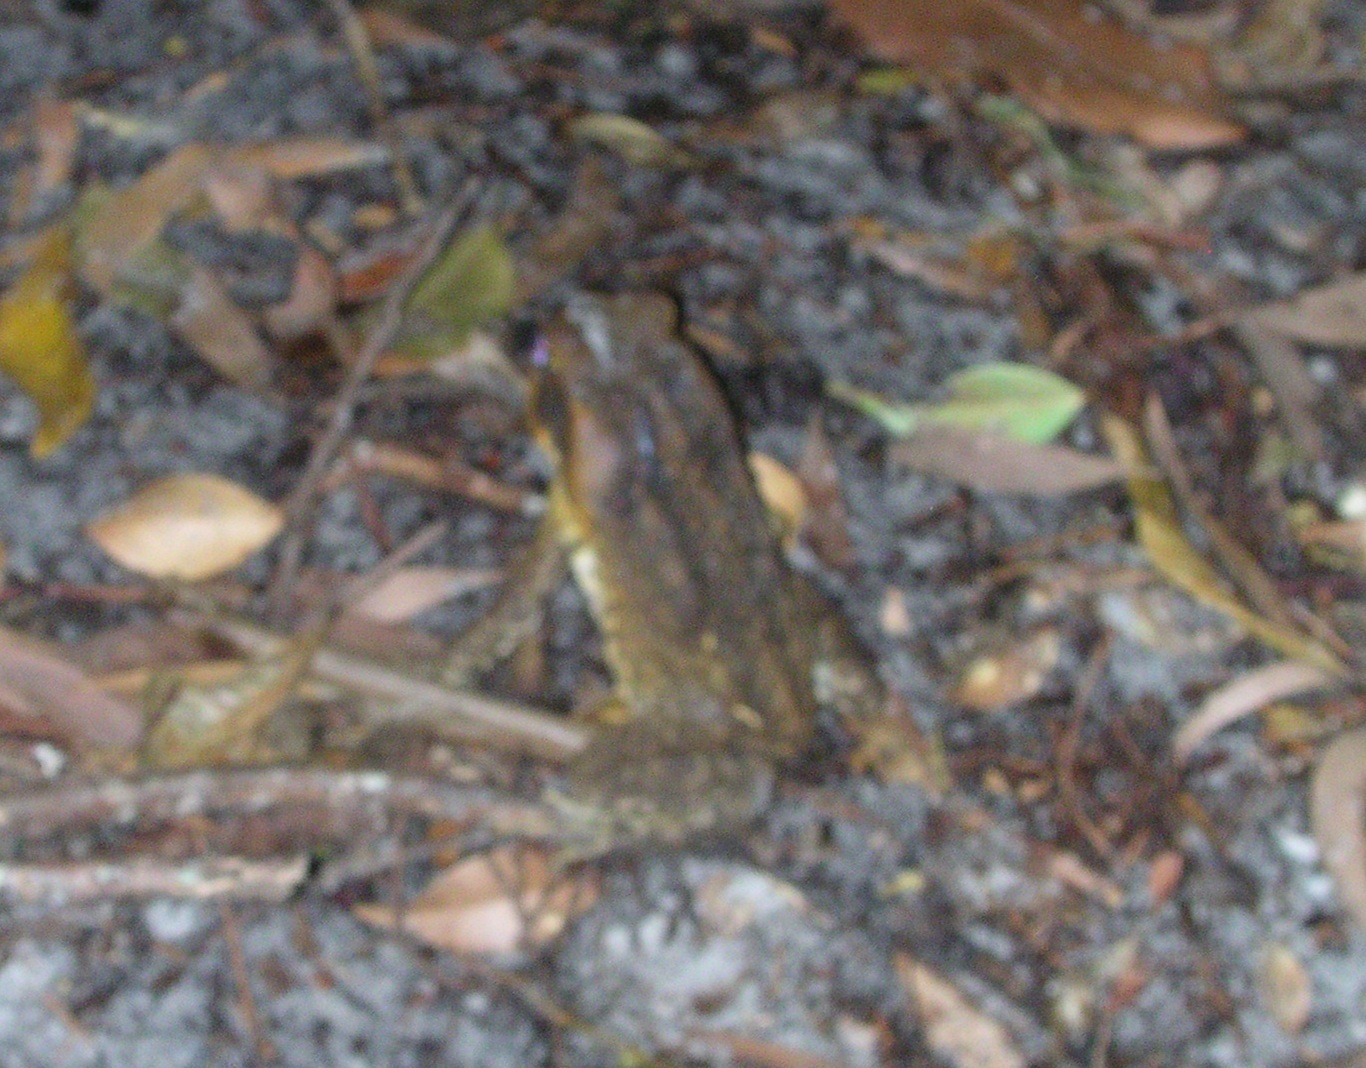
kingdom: Animalia
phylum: Chordata
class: Amphibia
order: Anura
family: Bufonidae
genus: Rhinella
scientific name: Rhinella marina
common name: Cane toad
